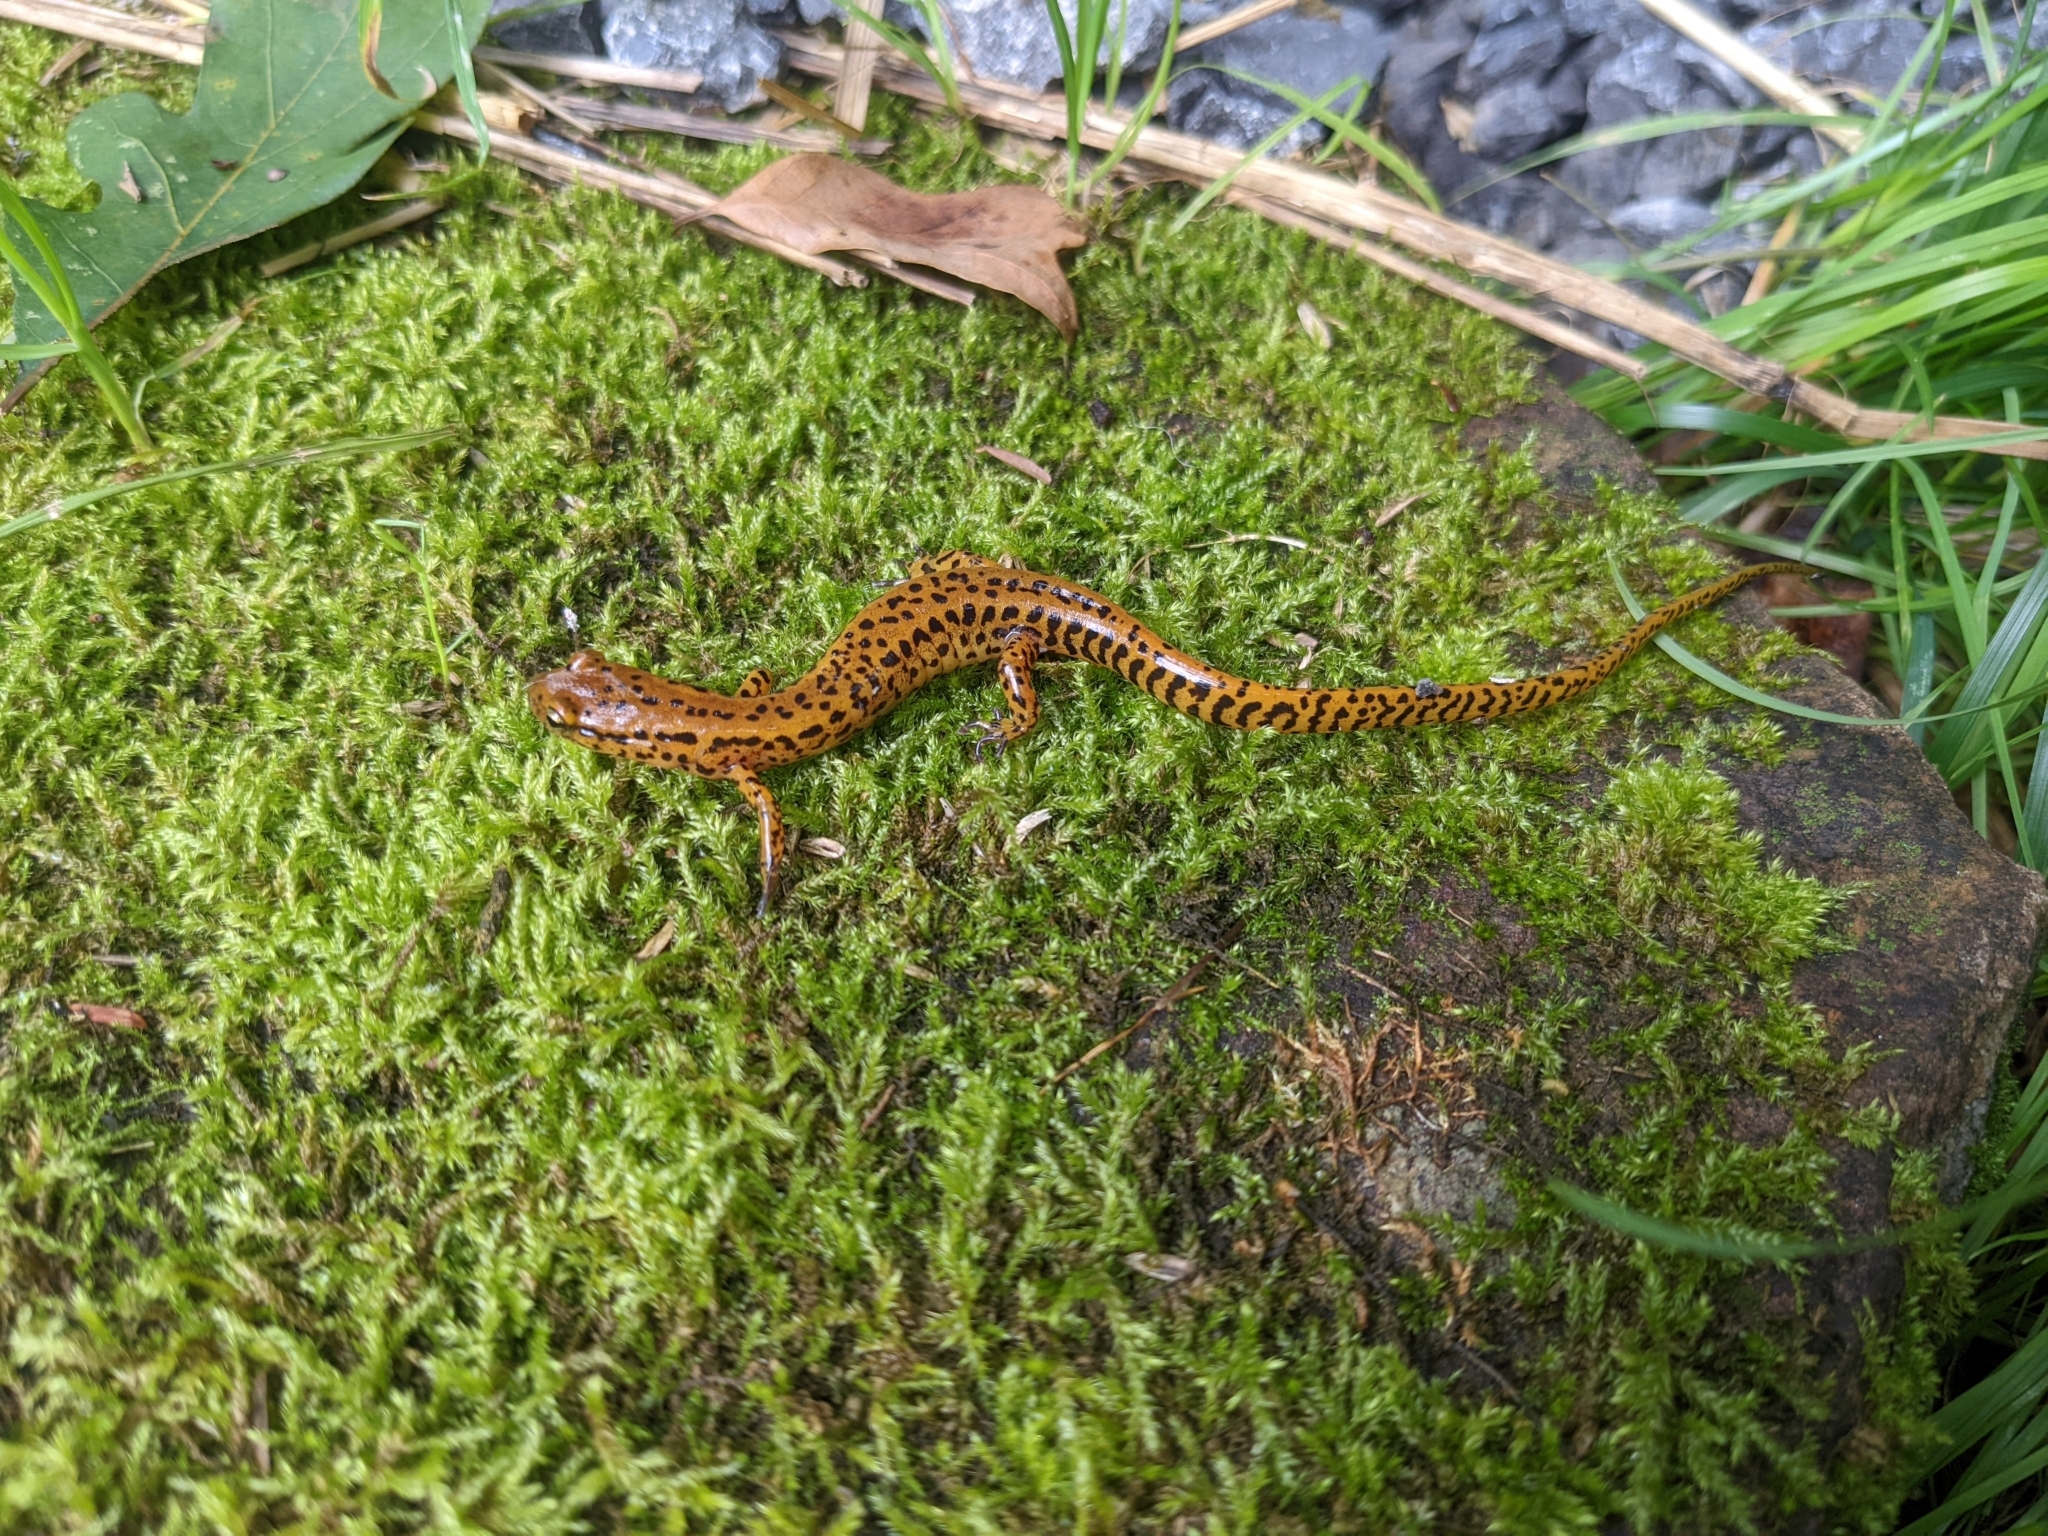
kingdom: Animalia
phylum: Chordata
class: Amphibia
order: Caudata
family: Plethodontidae
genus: Eurycea
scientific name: Eurycea longicauda
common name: Long-tailed salamander
